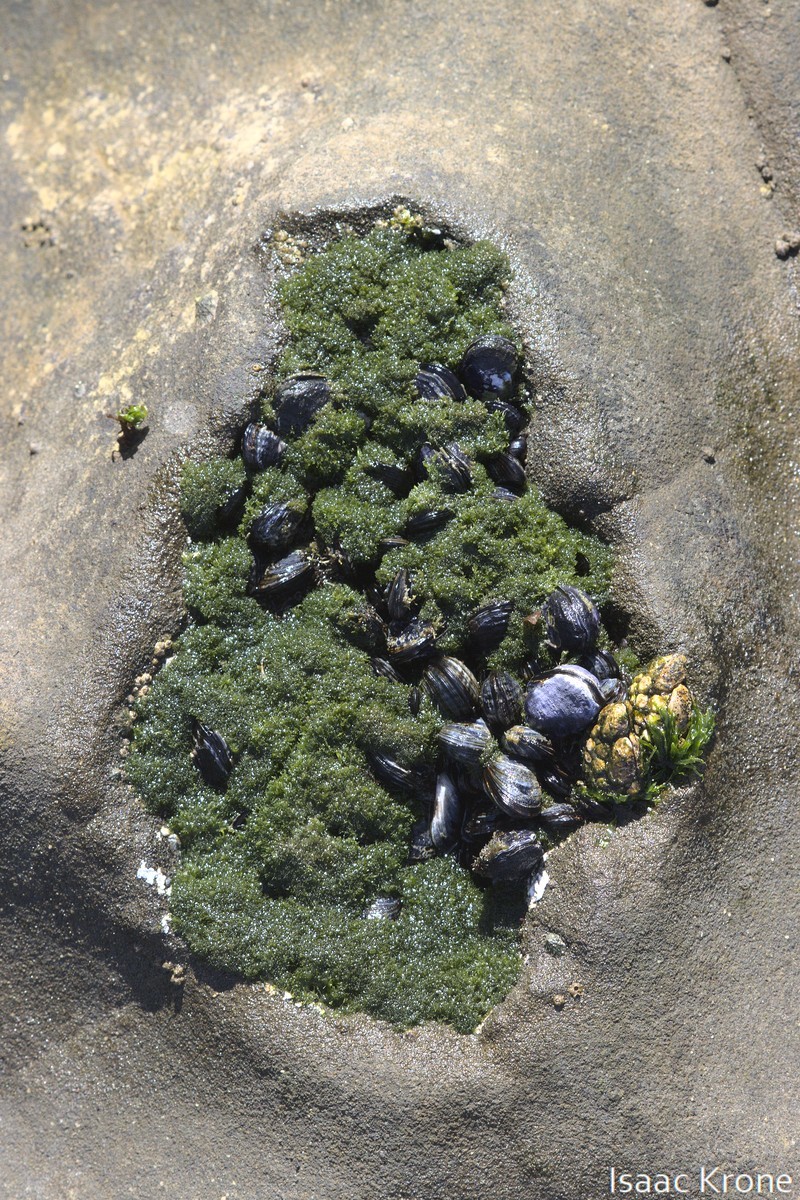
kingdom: Plantae
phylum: Chlorophyta
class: Ulvophyceae
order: Cladophorales
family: Cladophoraceae
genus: Cladophora
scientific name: Cladophora columbiana
